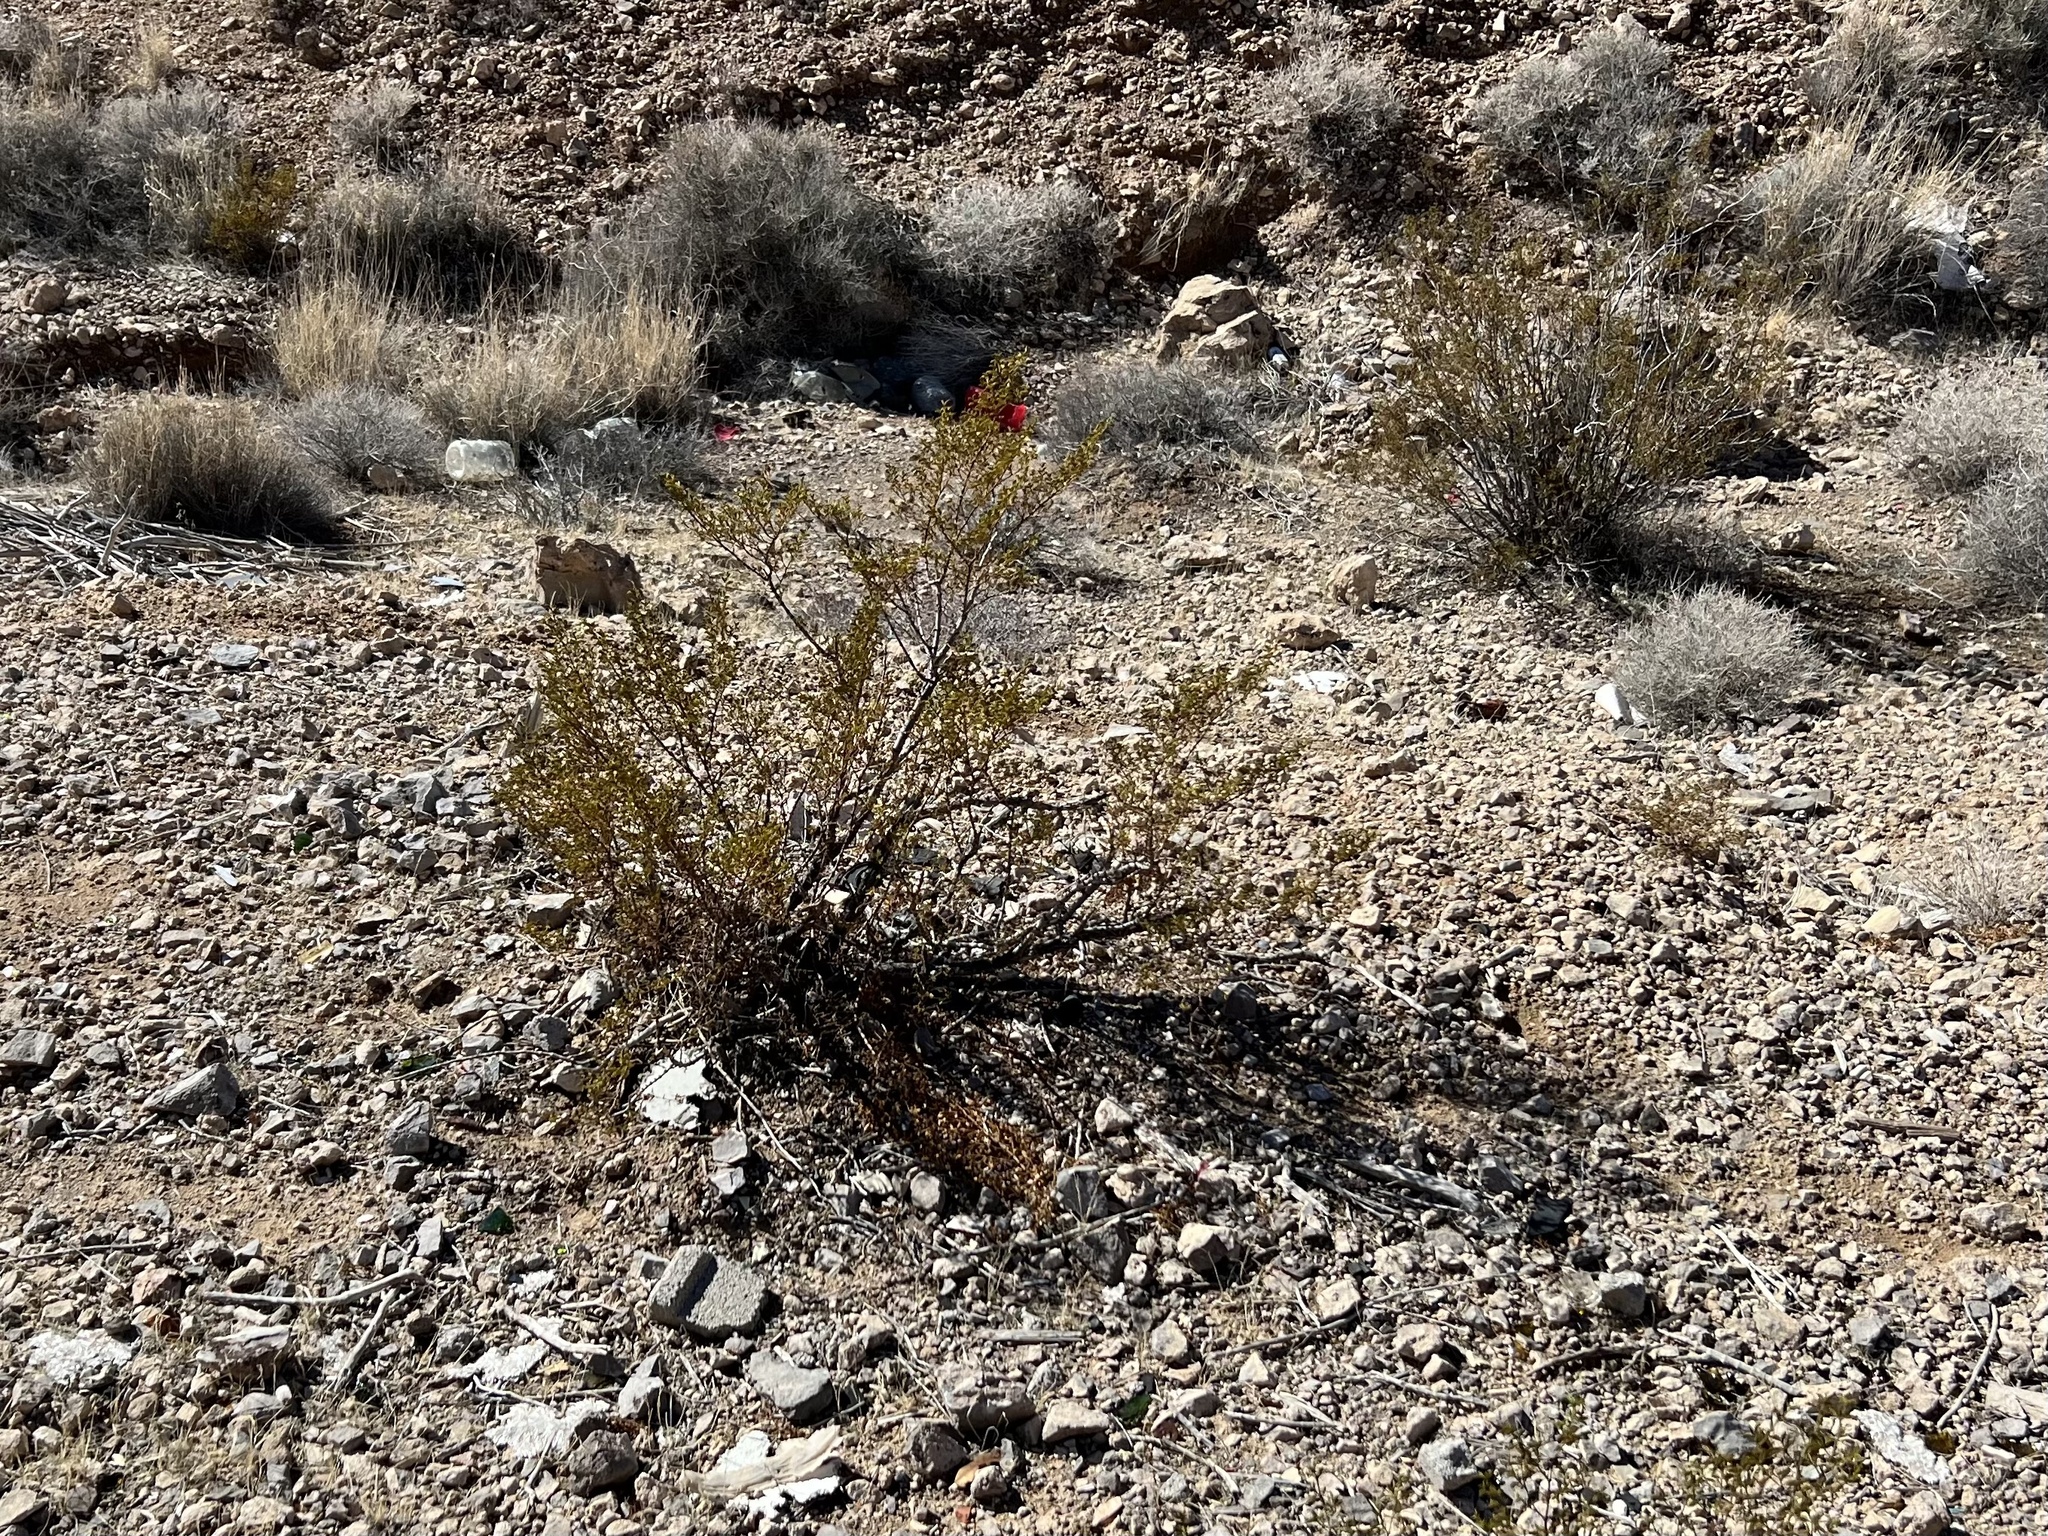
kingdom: Plantae
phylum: Tracheophyta
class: Magnoliopsida
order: Zygophyllales
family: Zygophyllaceae
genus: Larrea
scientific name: Larrea tridentata
